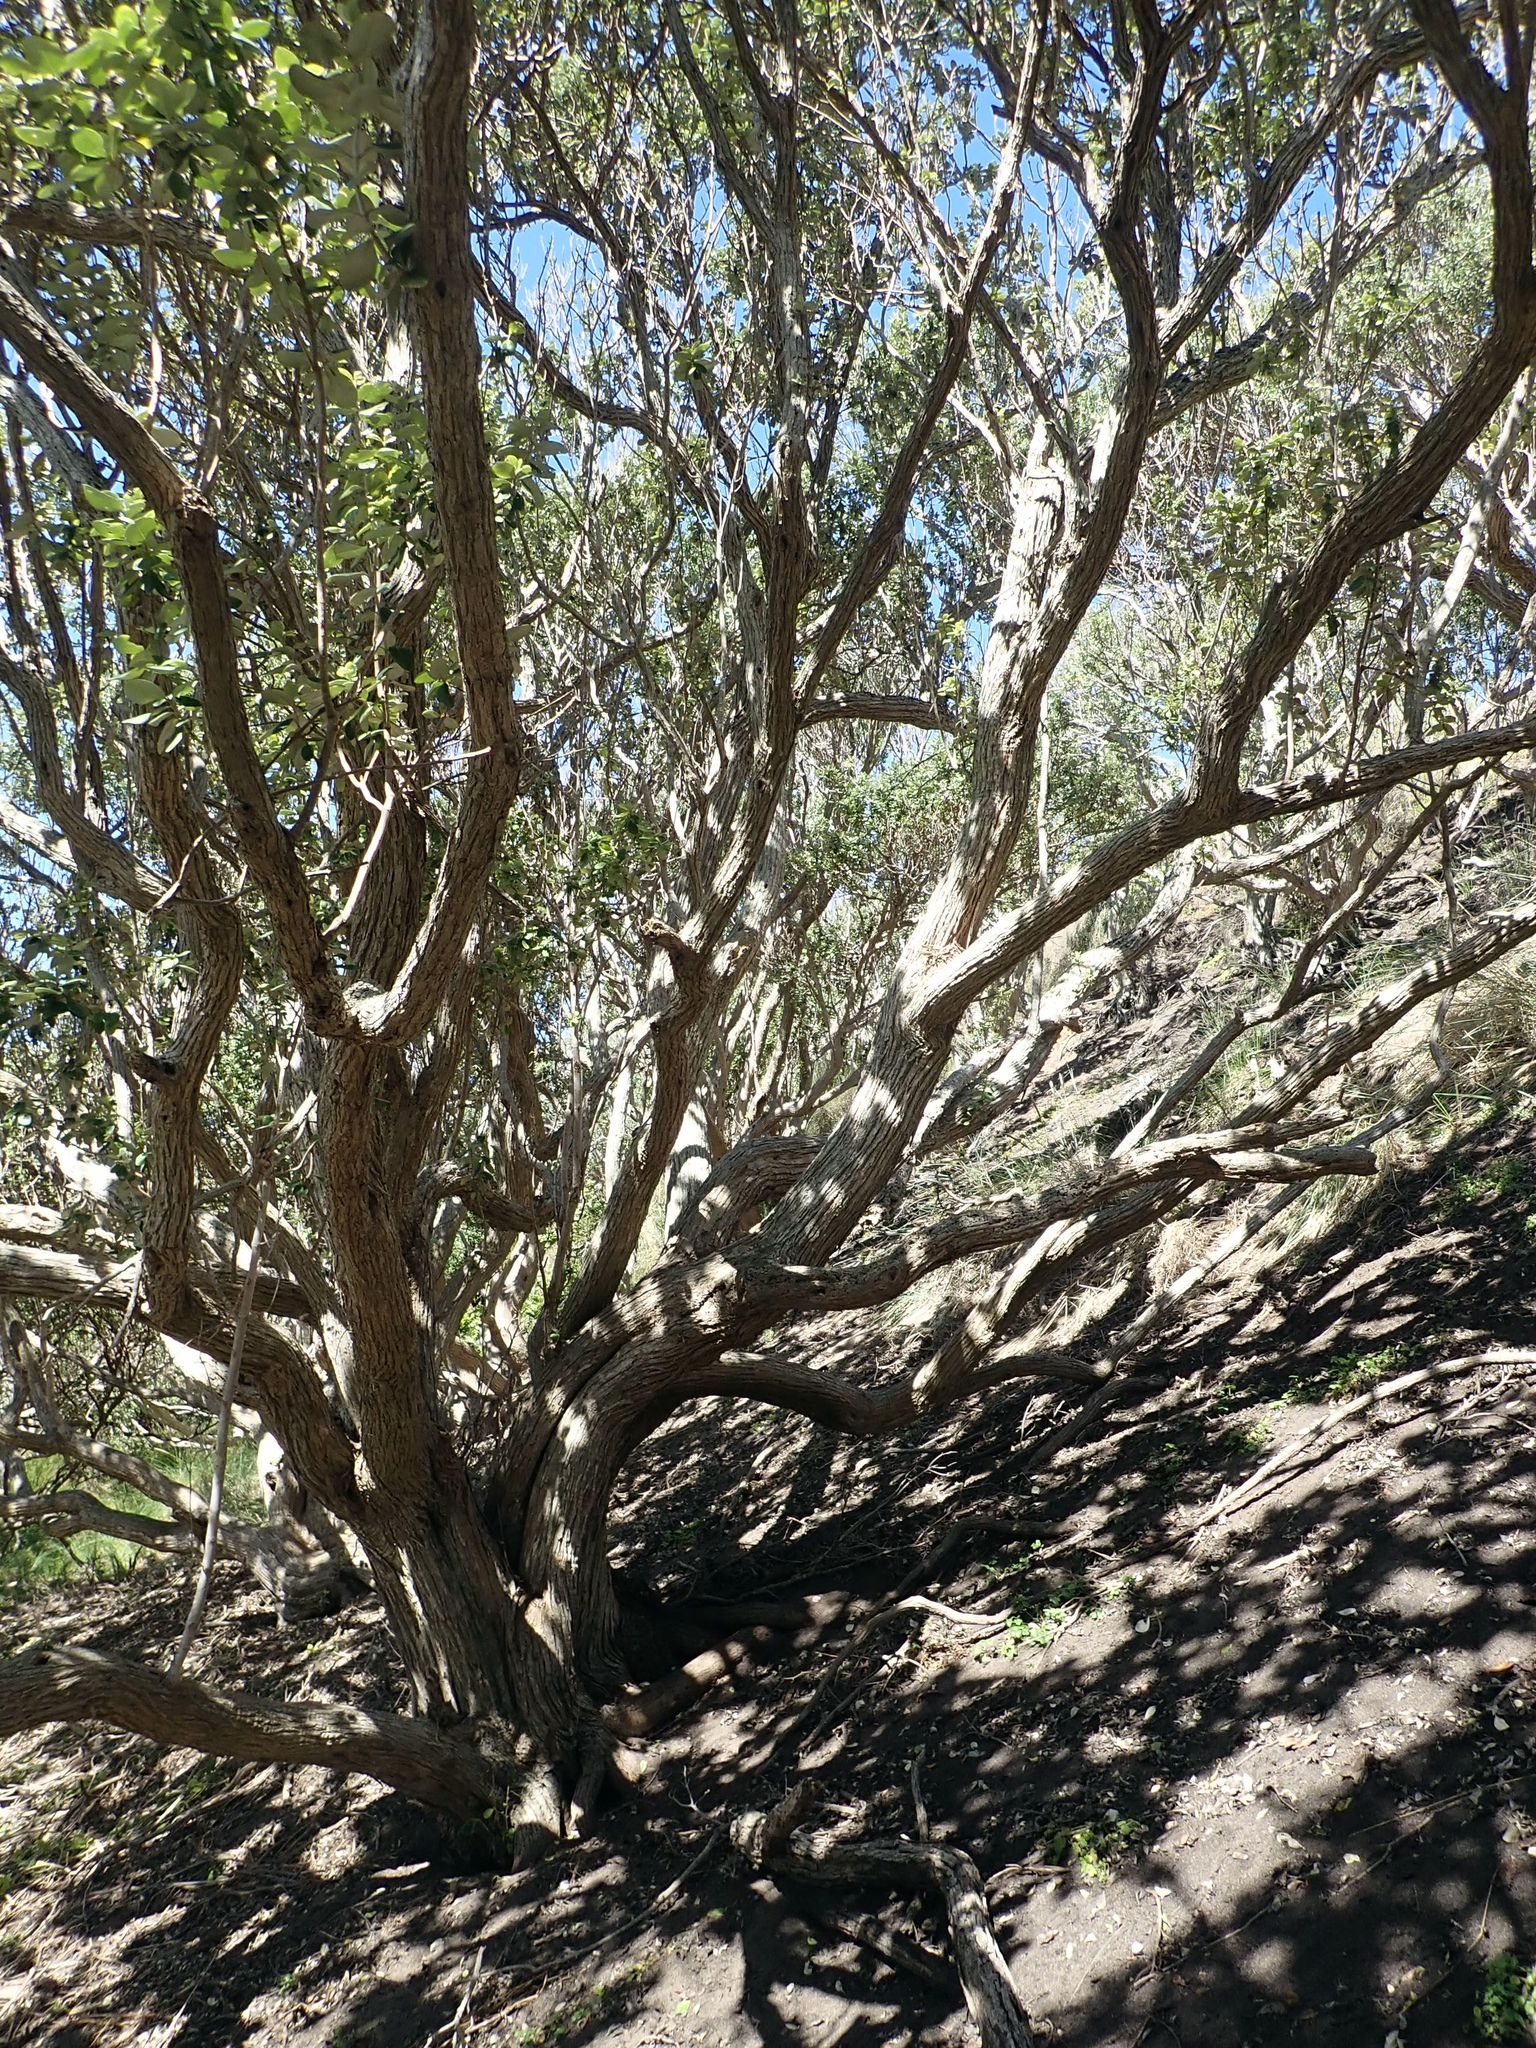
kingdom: Plantae
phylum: Tracheophyta
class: Magnoliopsida
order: Asterales
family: Asteraceae
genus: Olearia
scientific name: Olearia traversiorum
